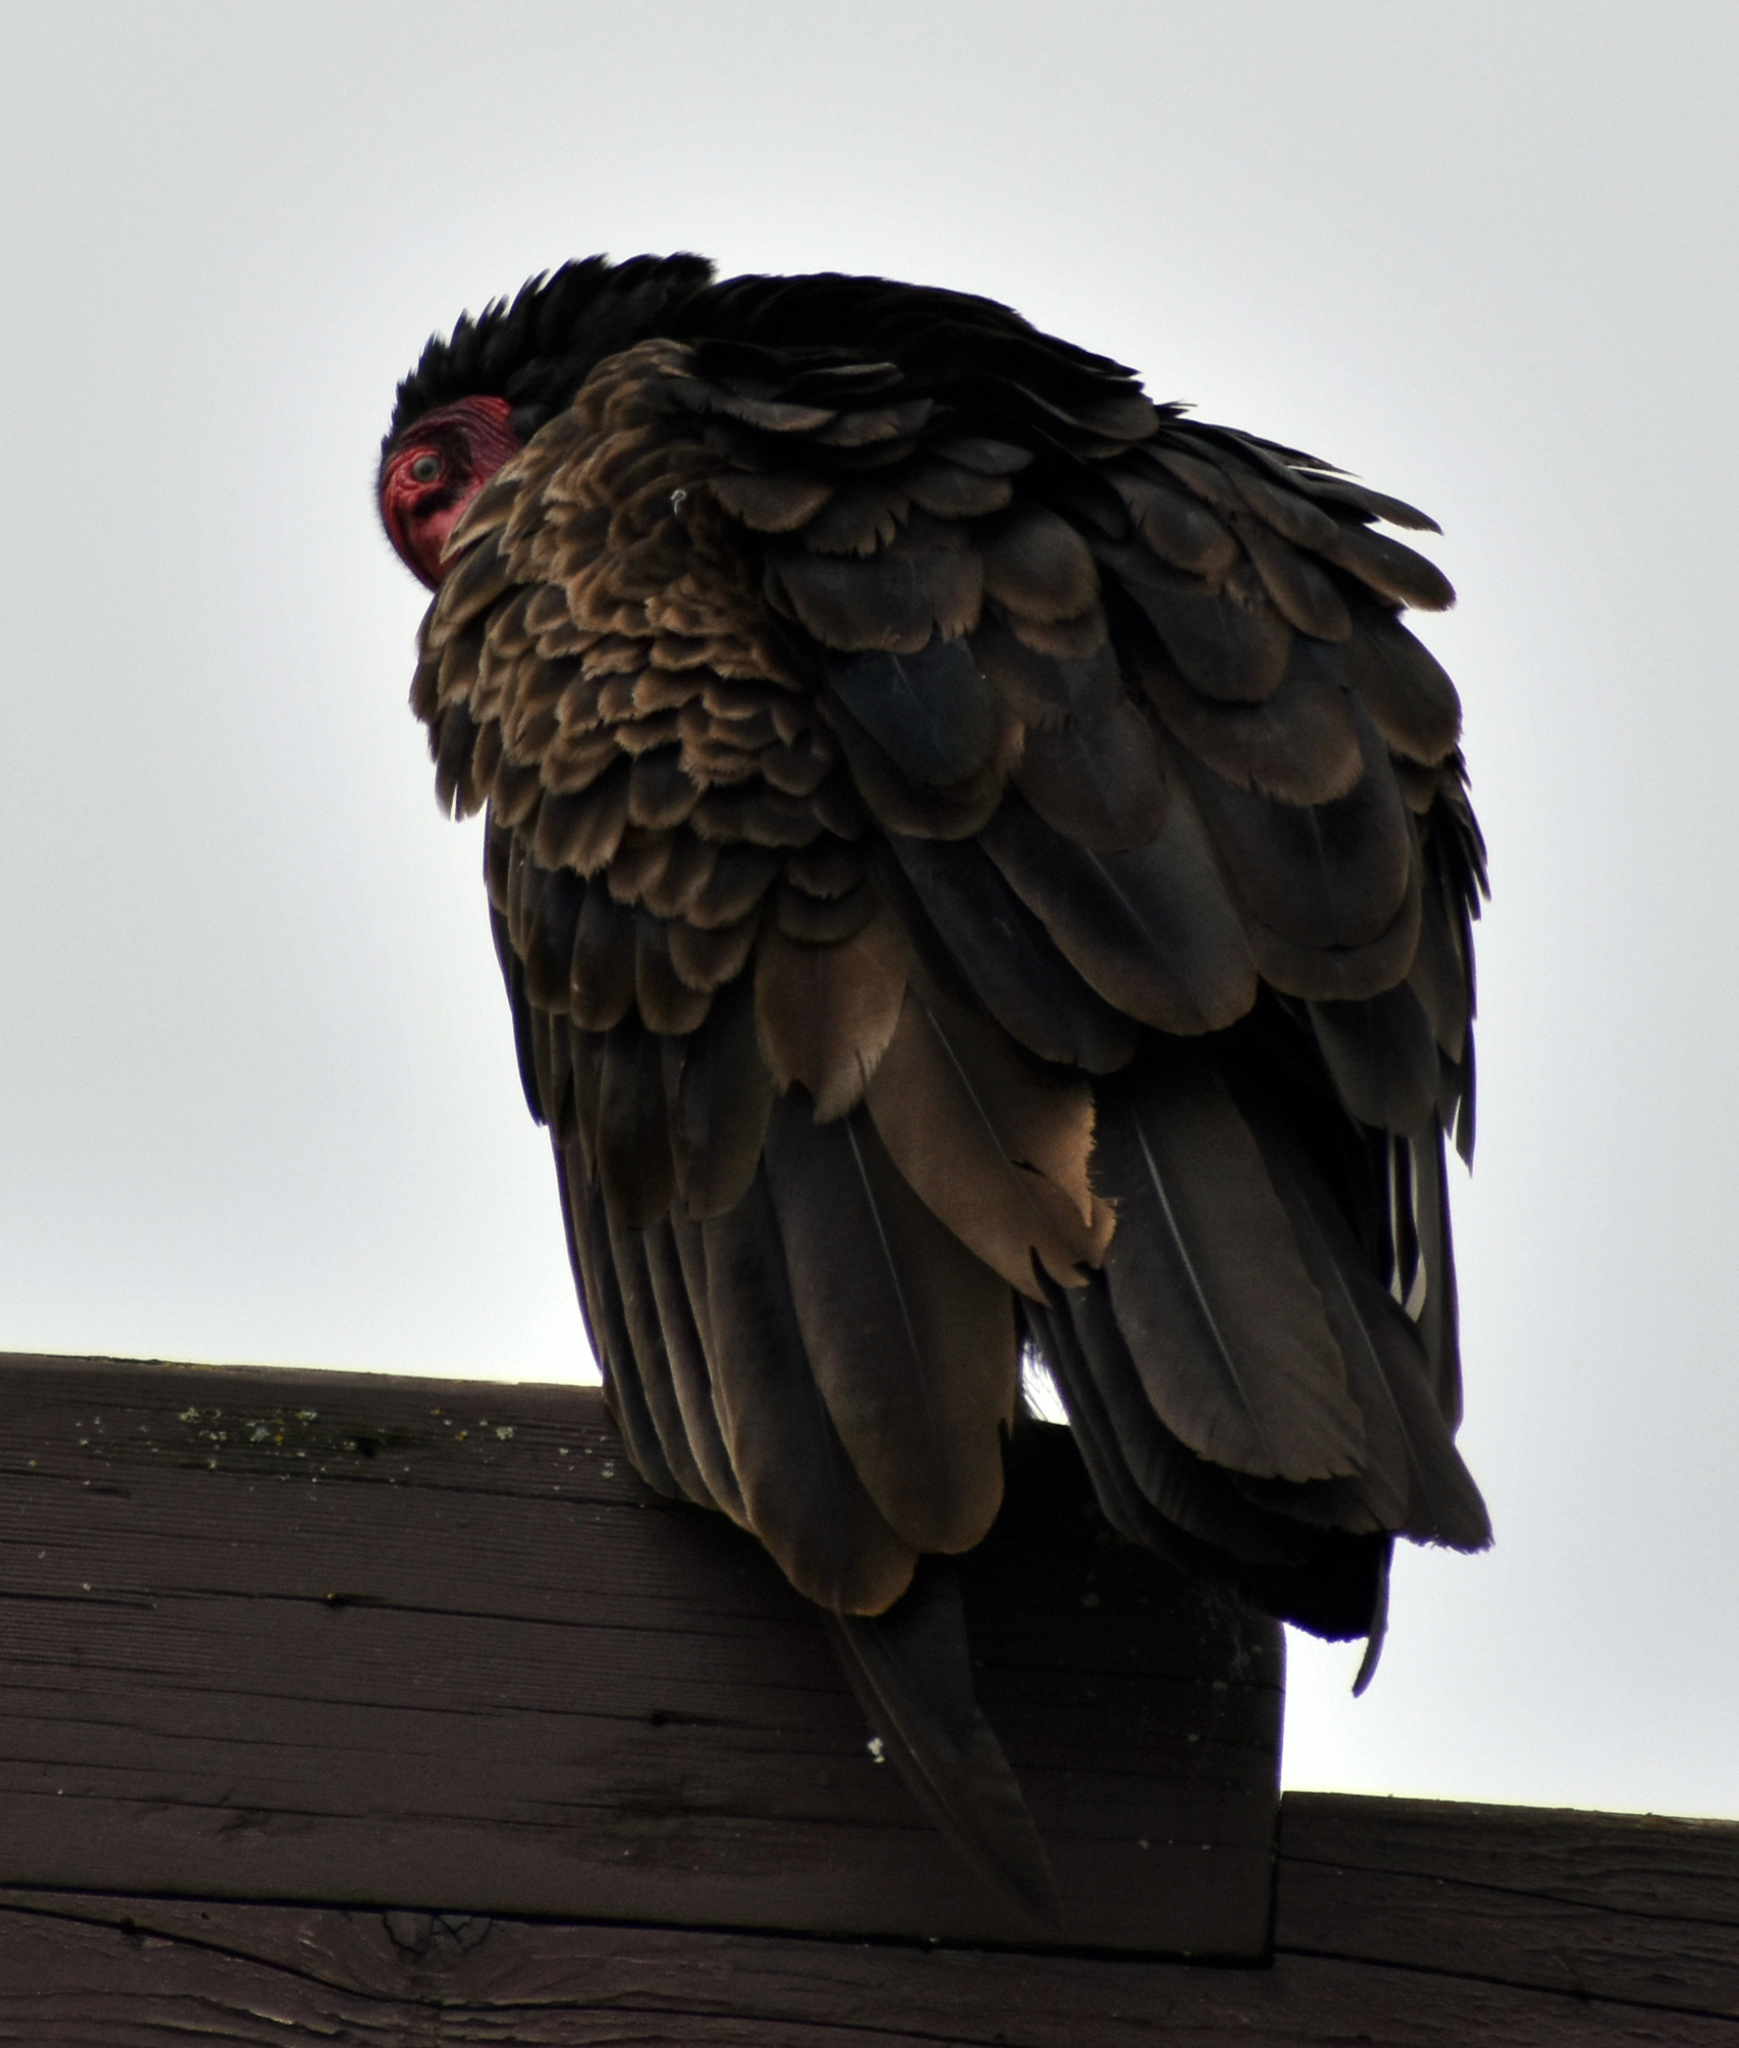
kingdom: Animalia
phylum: Chordata
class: Aves
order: Accipitriformes
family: Cathartidae
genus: Cathartes
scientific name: Cathartes aura
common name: Turkey vulture
